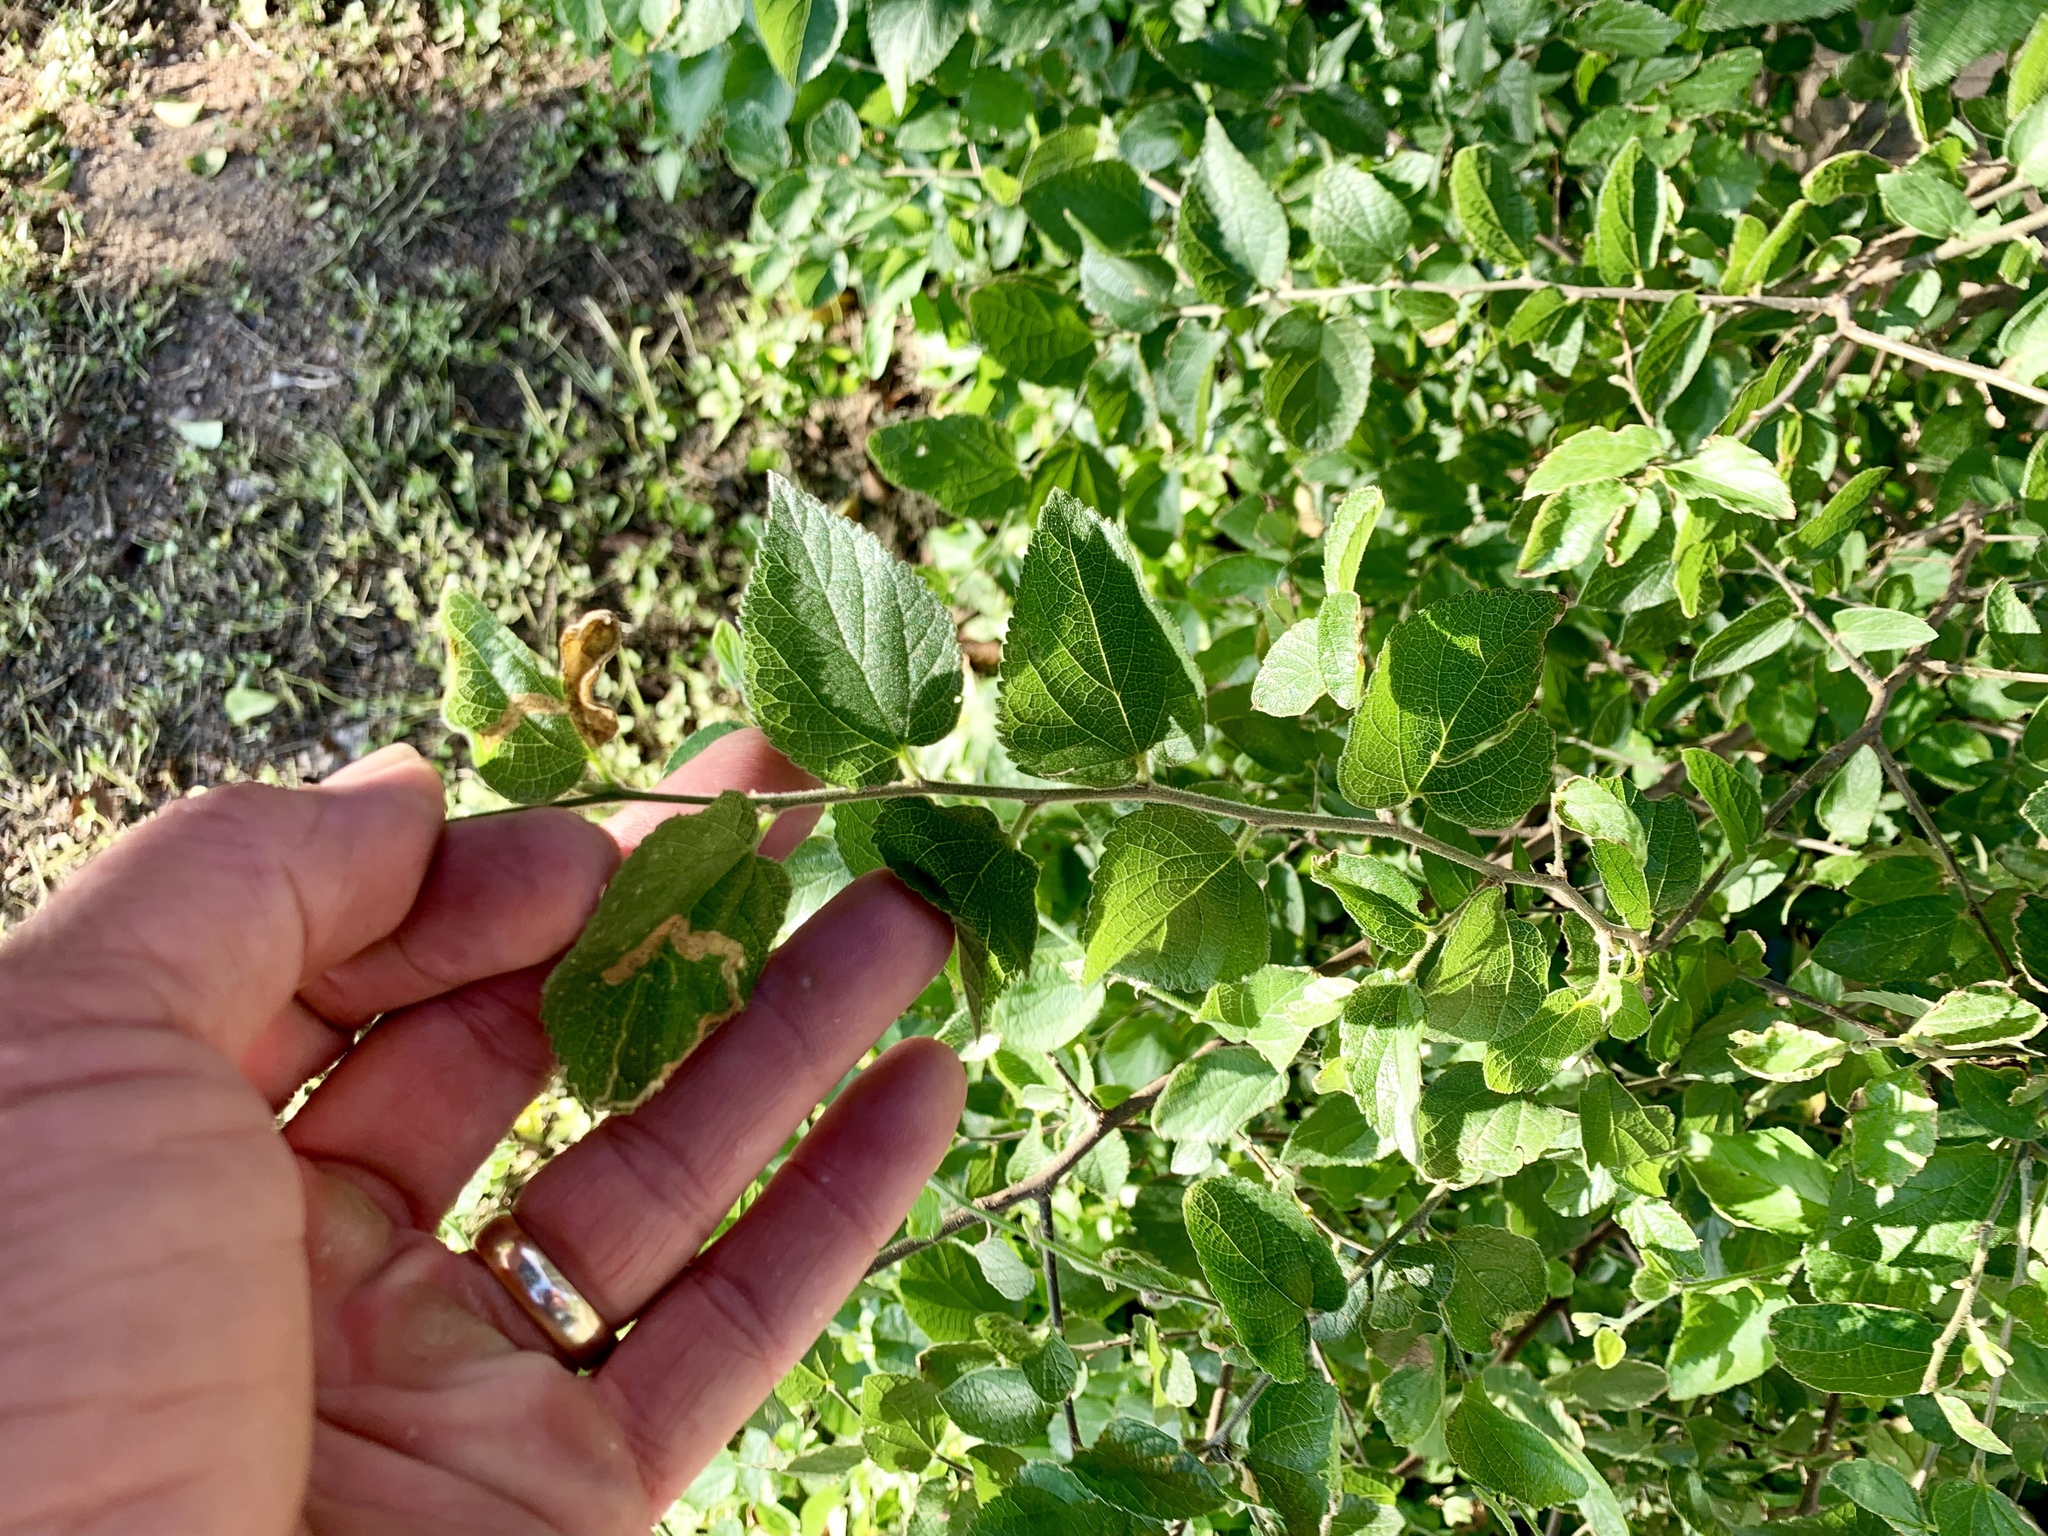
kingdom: Plantae
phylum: Tracheophyta
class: Magnoliopsida
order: Rosales
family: Cannabaceae
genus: Celtis
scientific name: Celtis reticulata
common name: Netleaf hackberry
